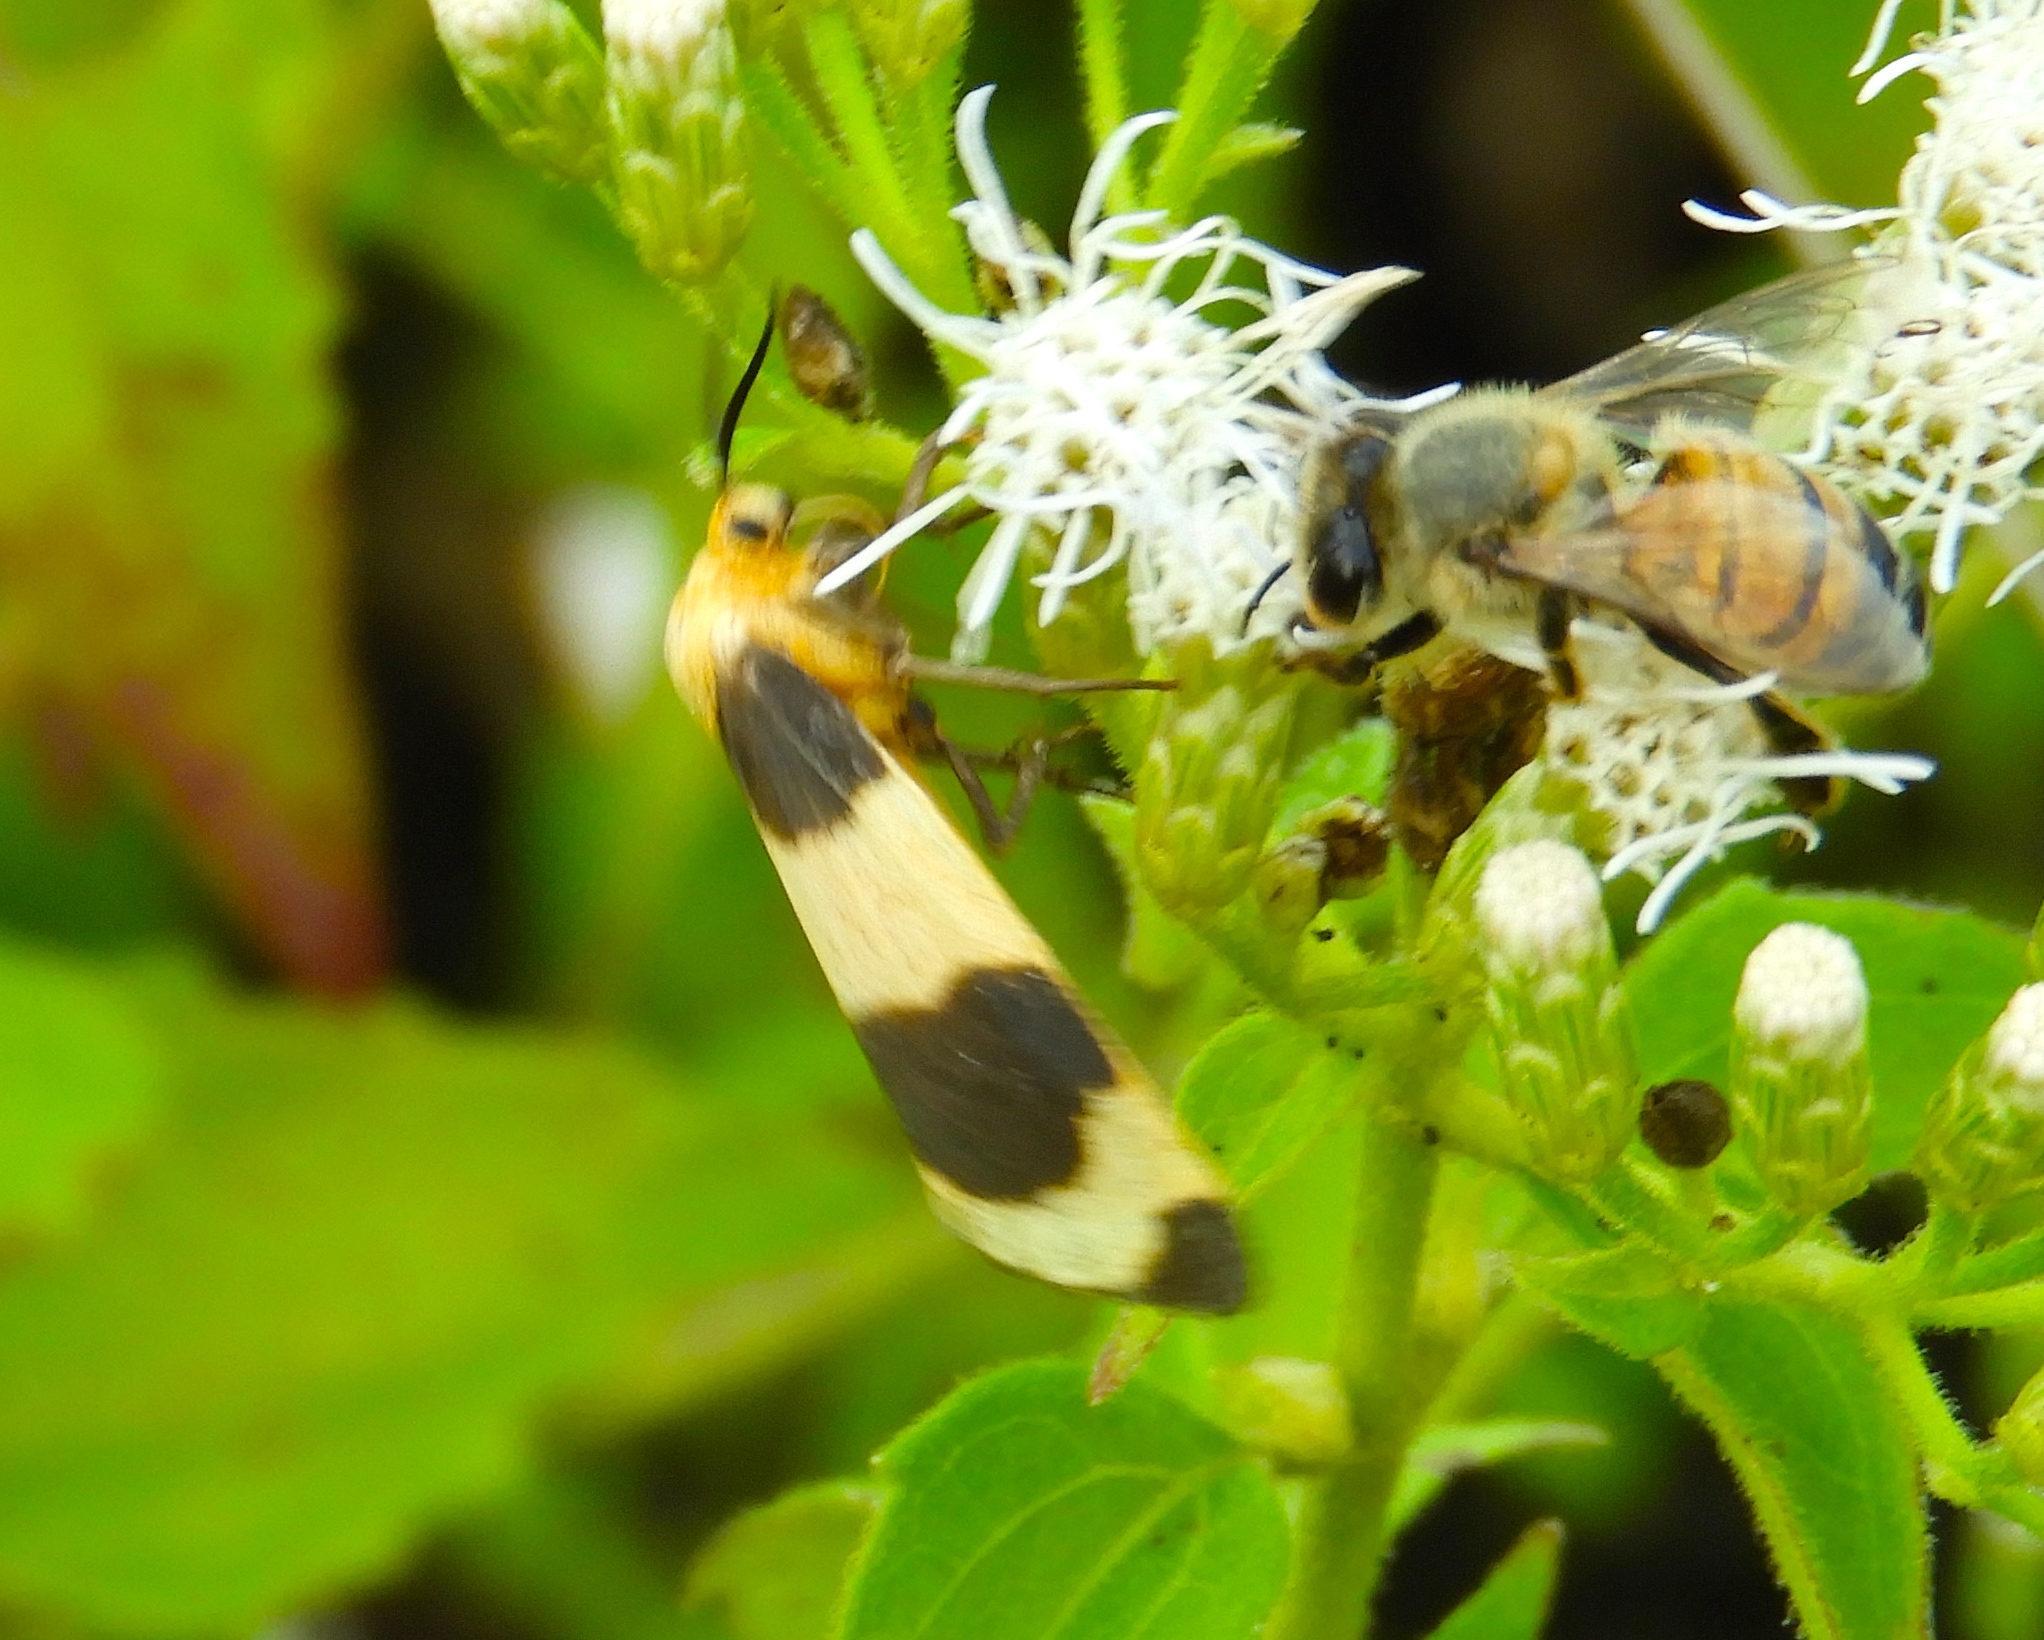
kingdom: Animalia
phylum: Arthropoda
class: Insecta
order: Lepidoptera
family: Erebidae
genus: Eudesmia
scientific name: Eudesmia menea
